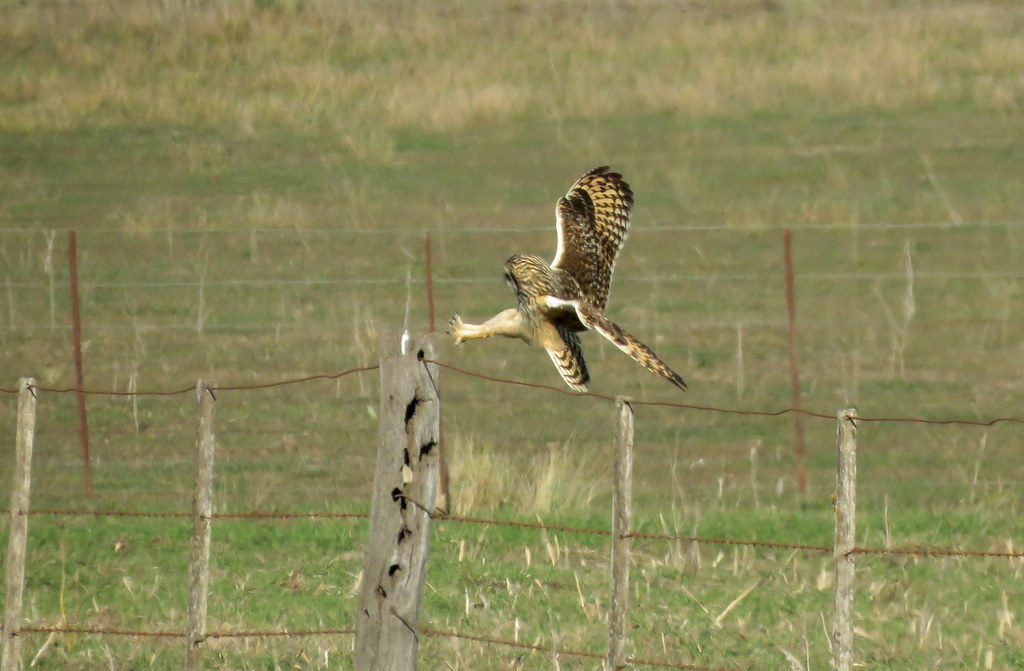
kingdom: Animalia
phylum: Chordata
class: Aves
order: Strigiformes
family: Strigidae
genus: Asio
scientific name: Asio flammeus
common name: Short-eared owl
